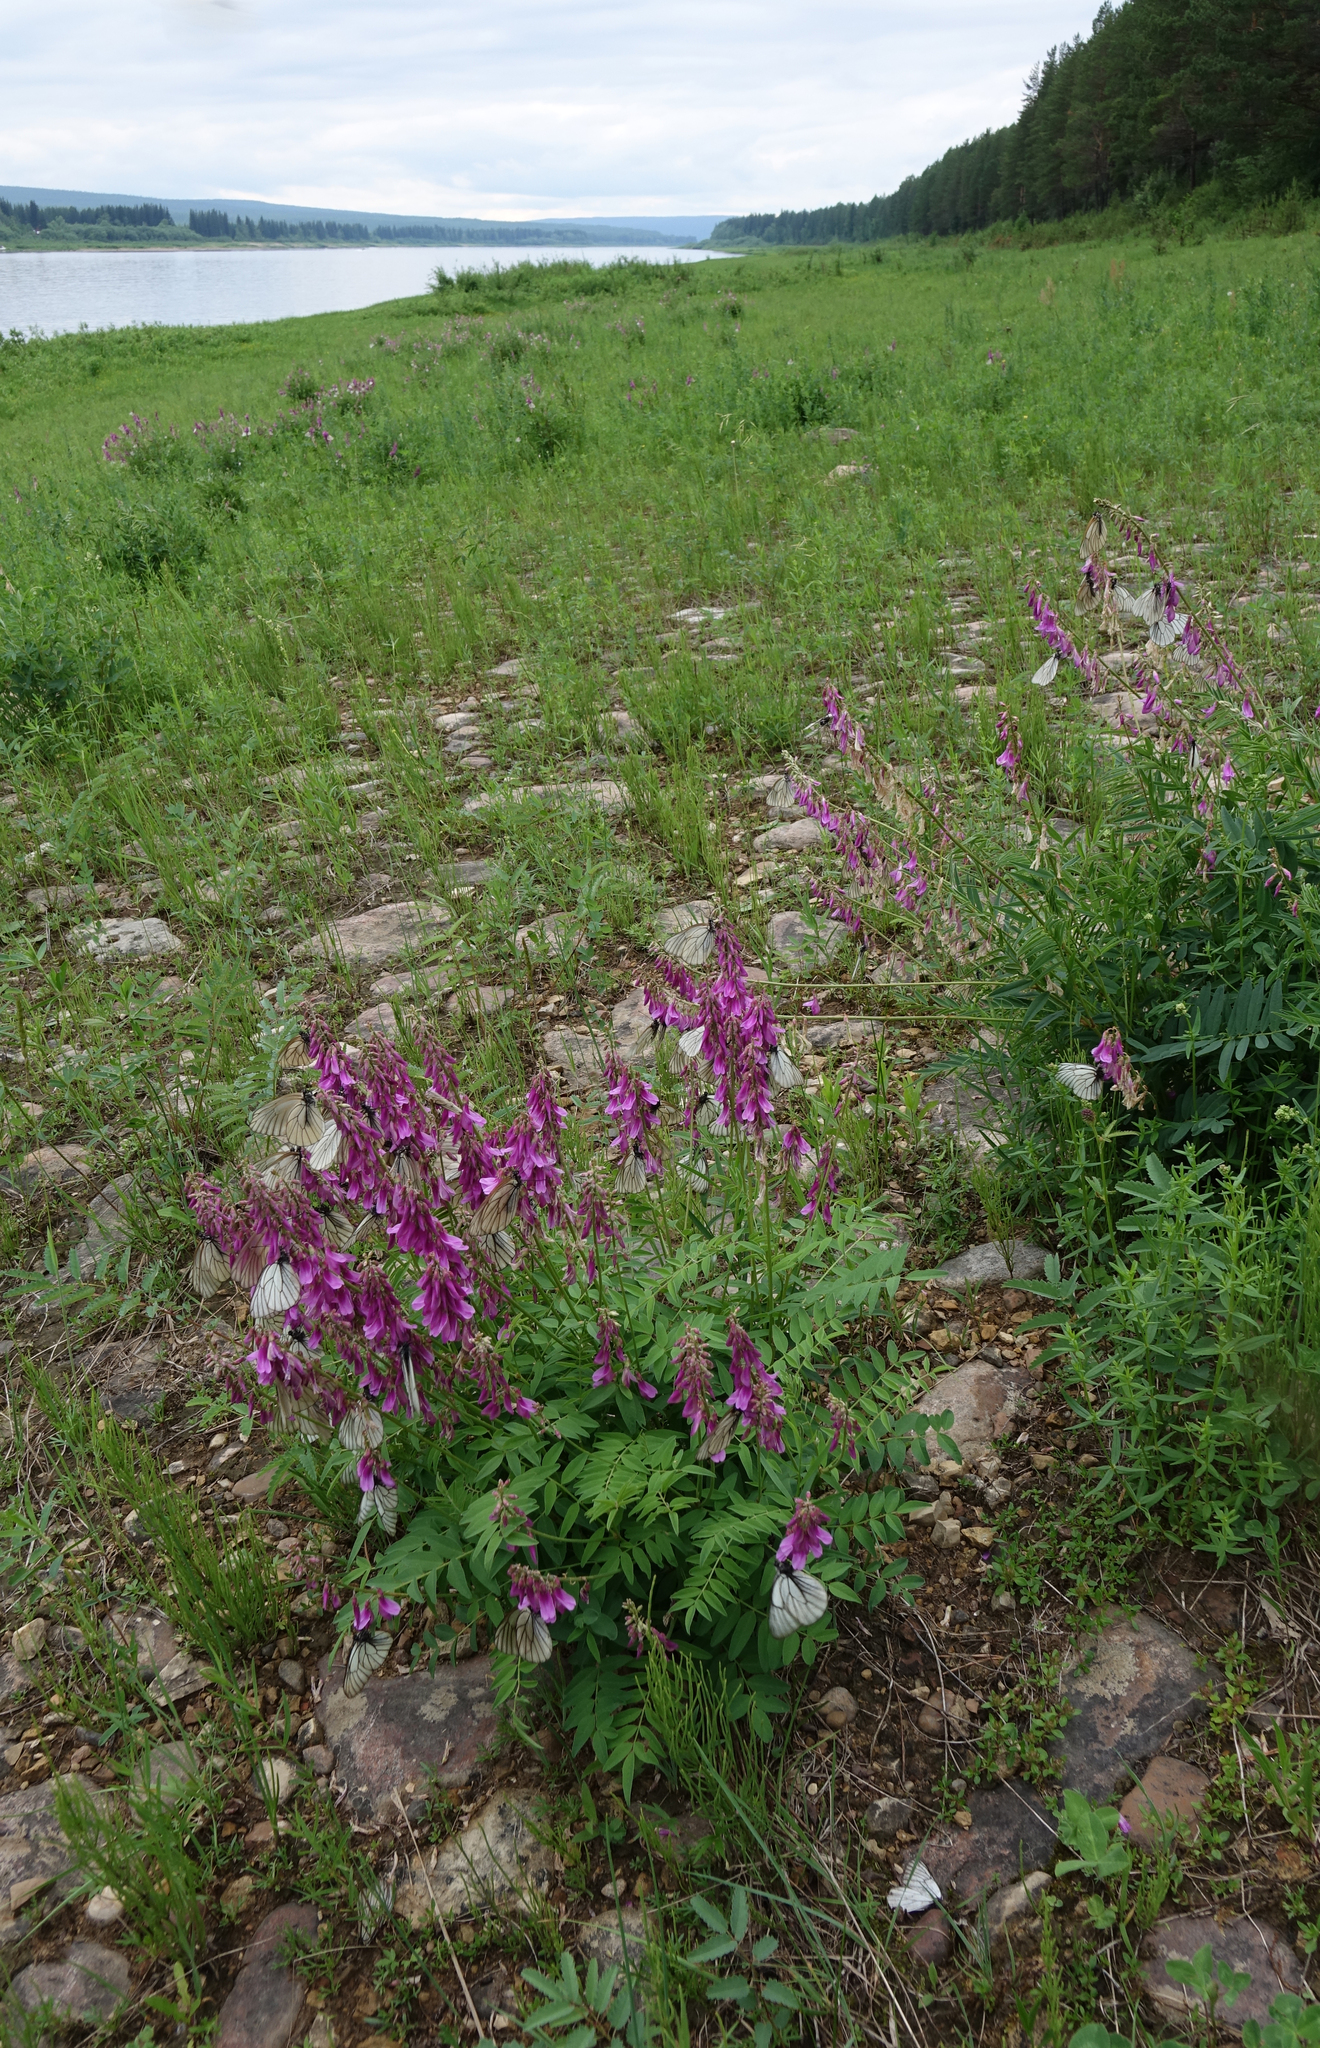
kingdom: Plantae
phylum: Tracheophyta
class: Magnoliopsida
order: Fabales
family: Fabaceae
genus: Hedysarum
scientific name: Hedysarum branthii
